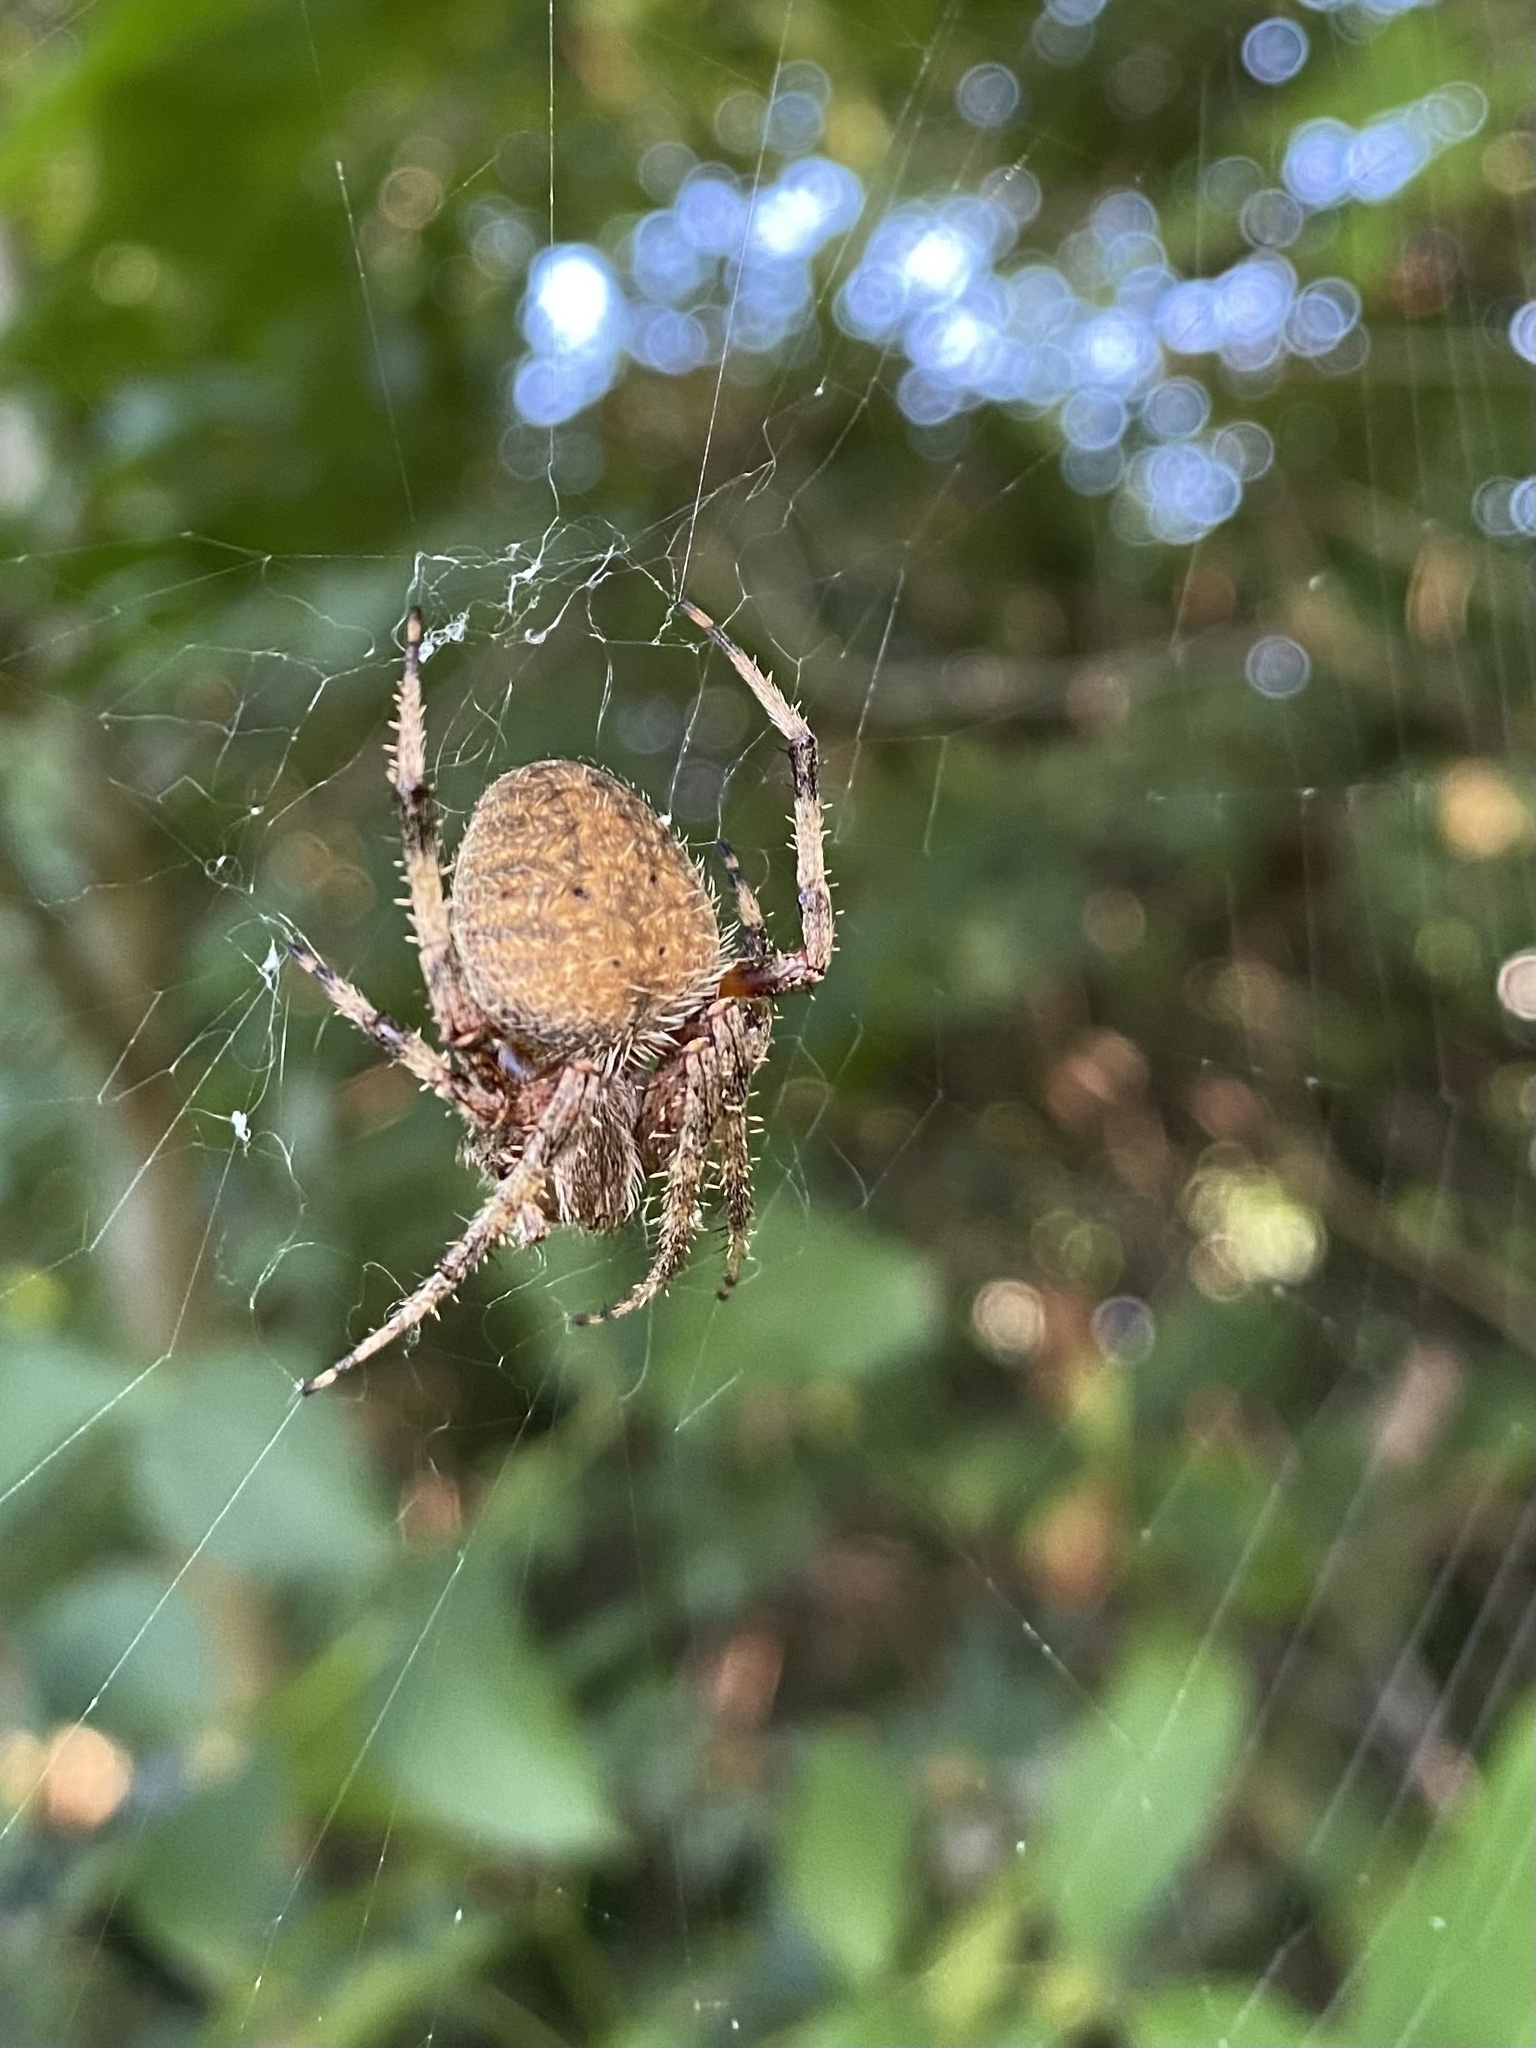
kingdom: Animalia
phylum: Arthropoda
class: Arachnida
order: Araneae
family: Araneidae
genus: Neoscona
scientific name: Neoscona crucifera
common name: Spotted orbweaver
